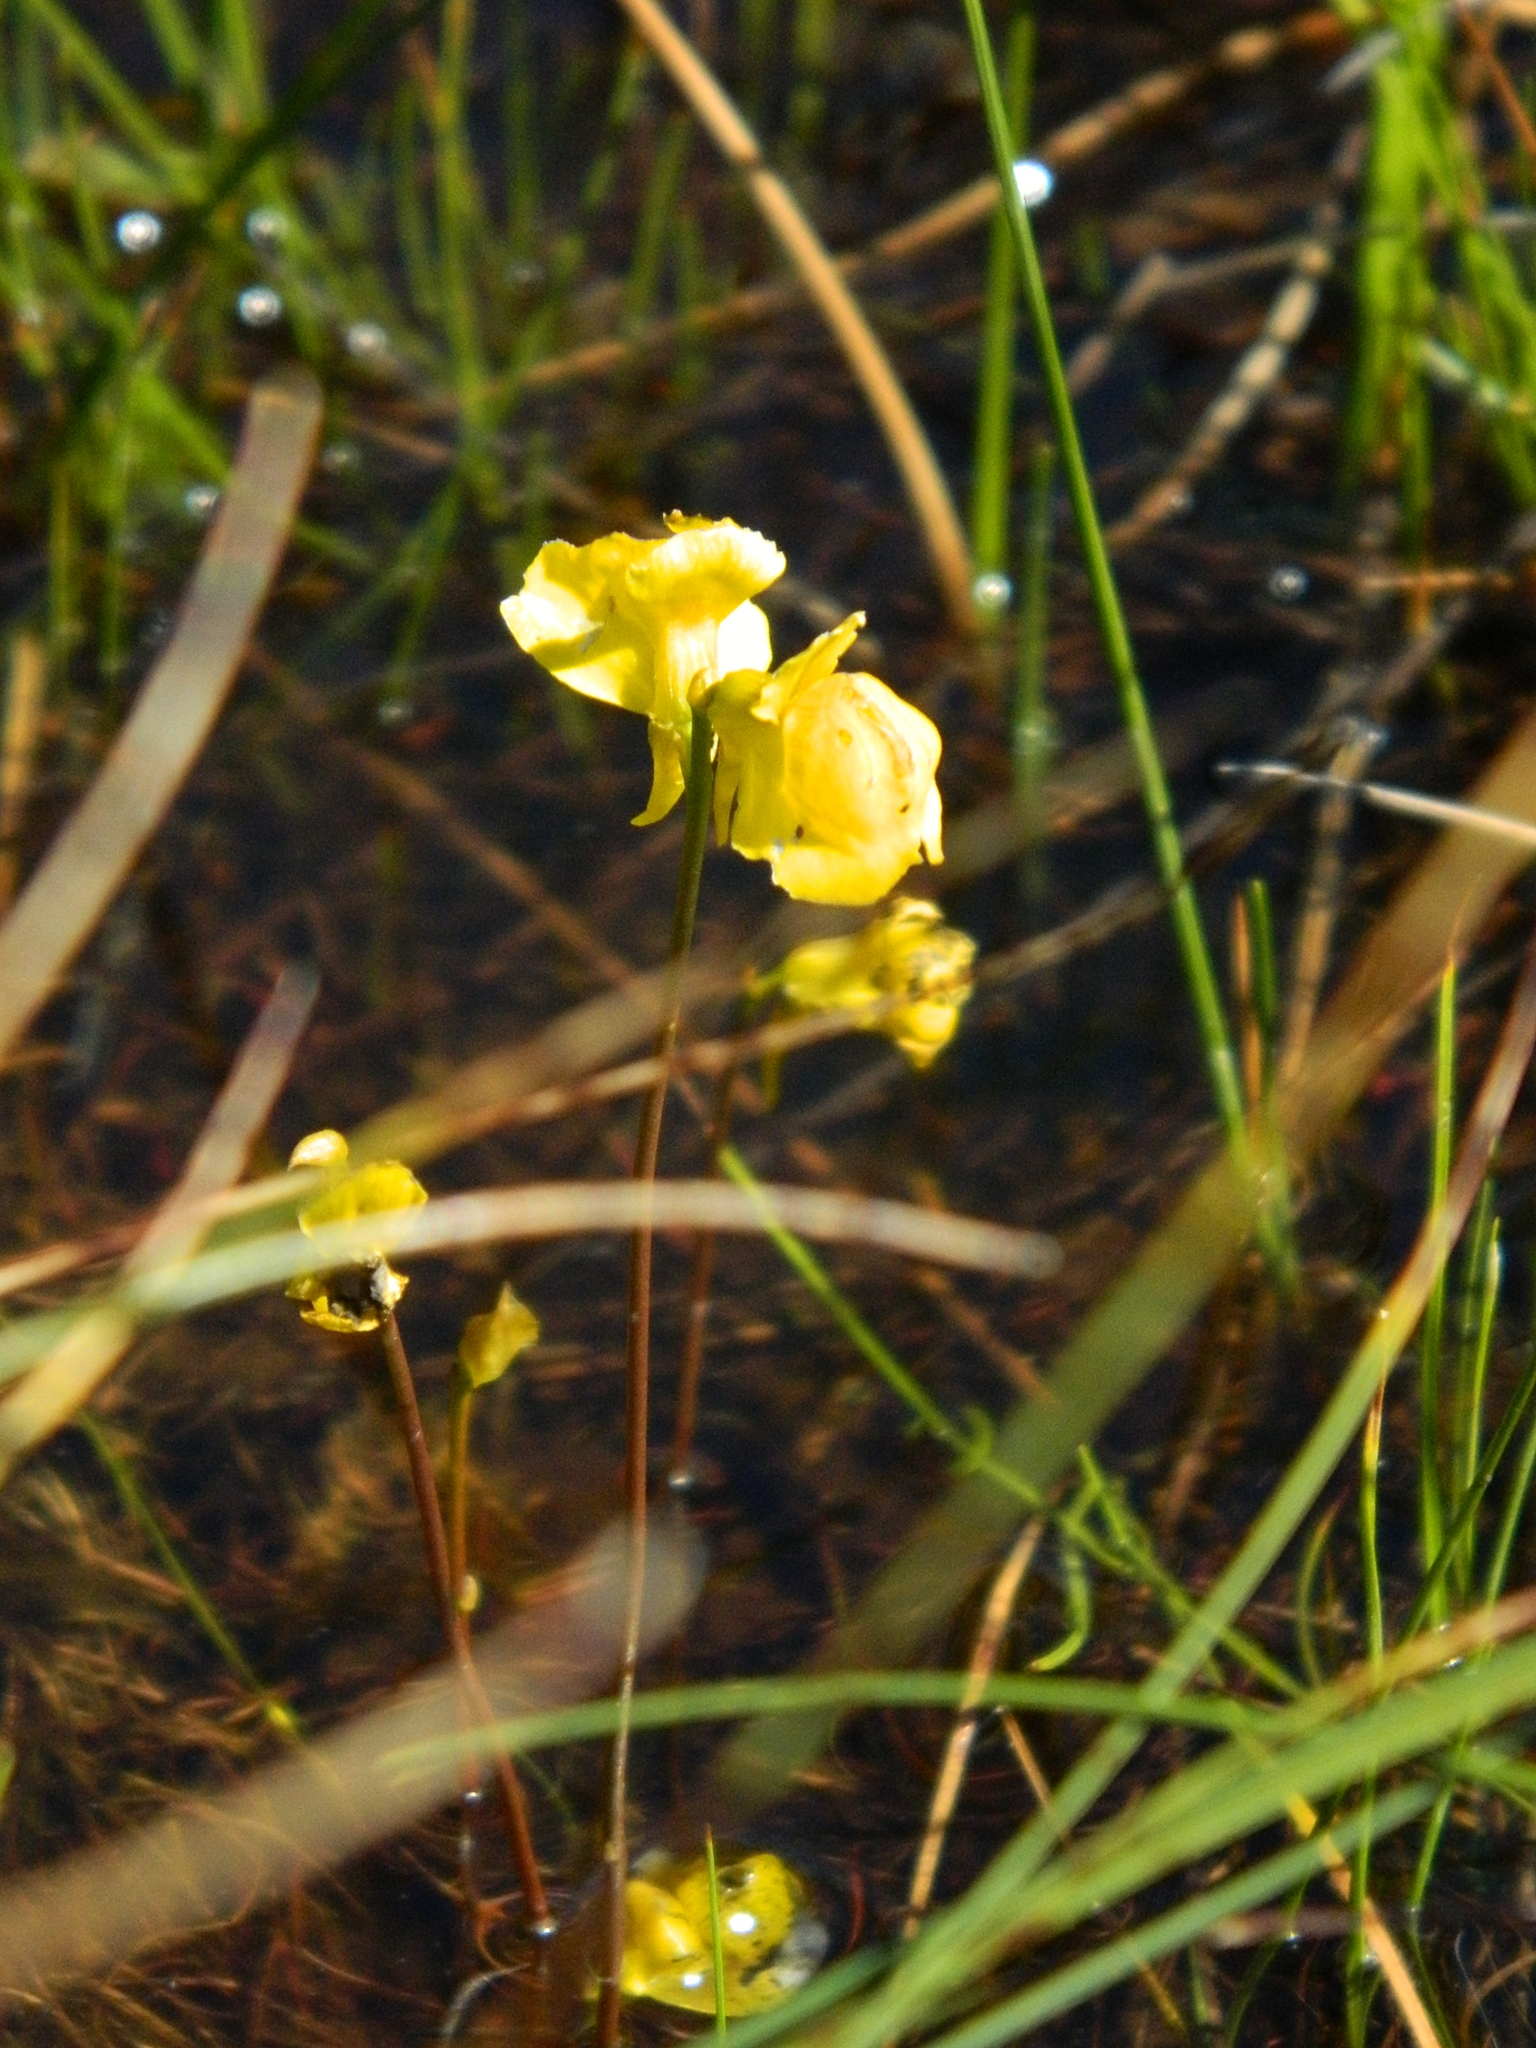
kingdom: Plantae
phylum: Tracheophyta
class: Magnoliopsida
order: Lamiales
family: Lentibulariaceae
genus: Utricularia
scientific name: Utricularia cornuta
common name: Horned bladderwort
